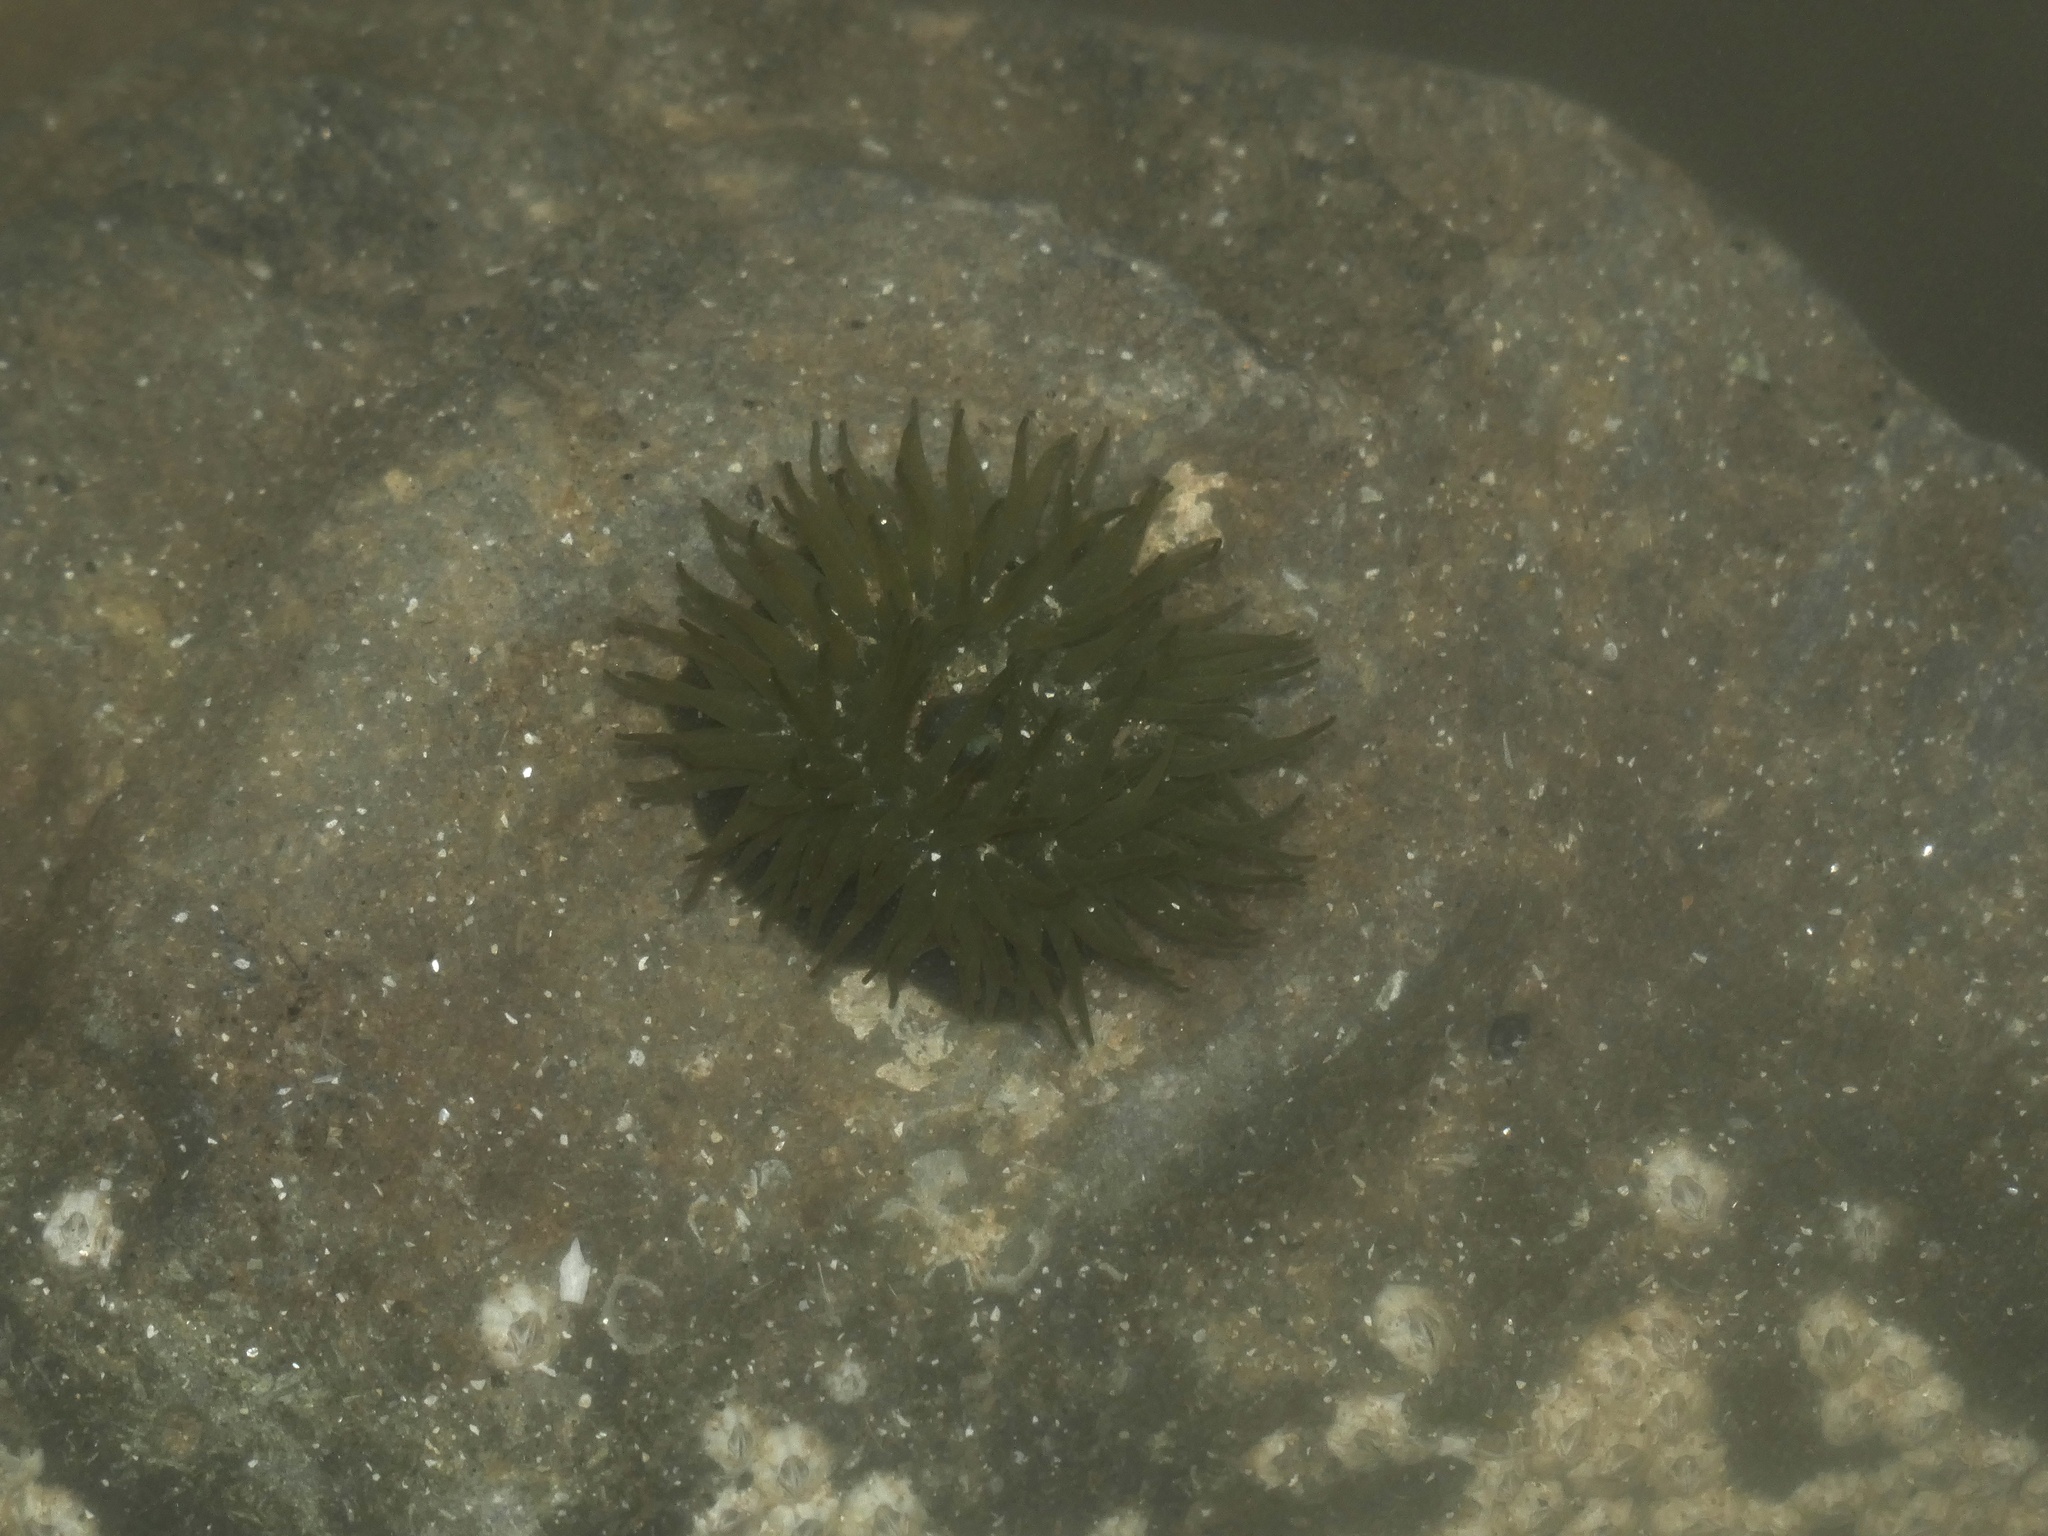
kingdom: Animalia
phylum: Cnidaria
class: Anthozoa
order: Actiniaria
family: Actiniidae
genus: Actinia
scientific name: Actinia equina
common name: Beadlet anemone
